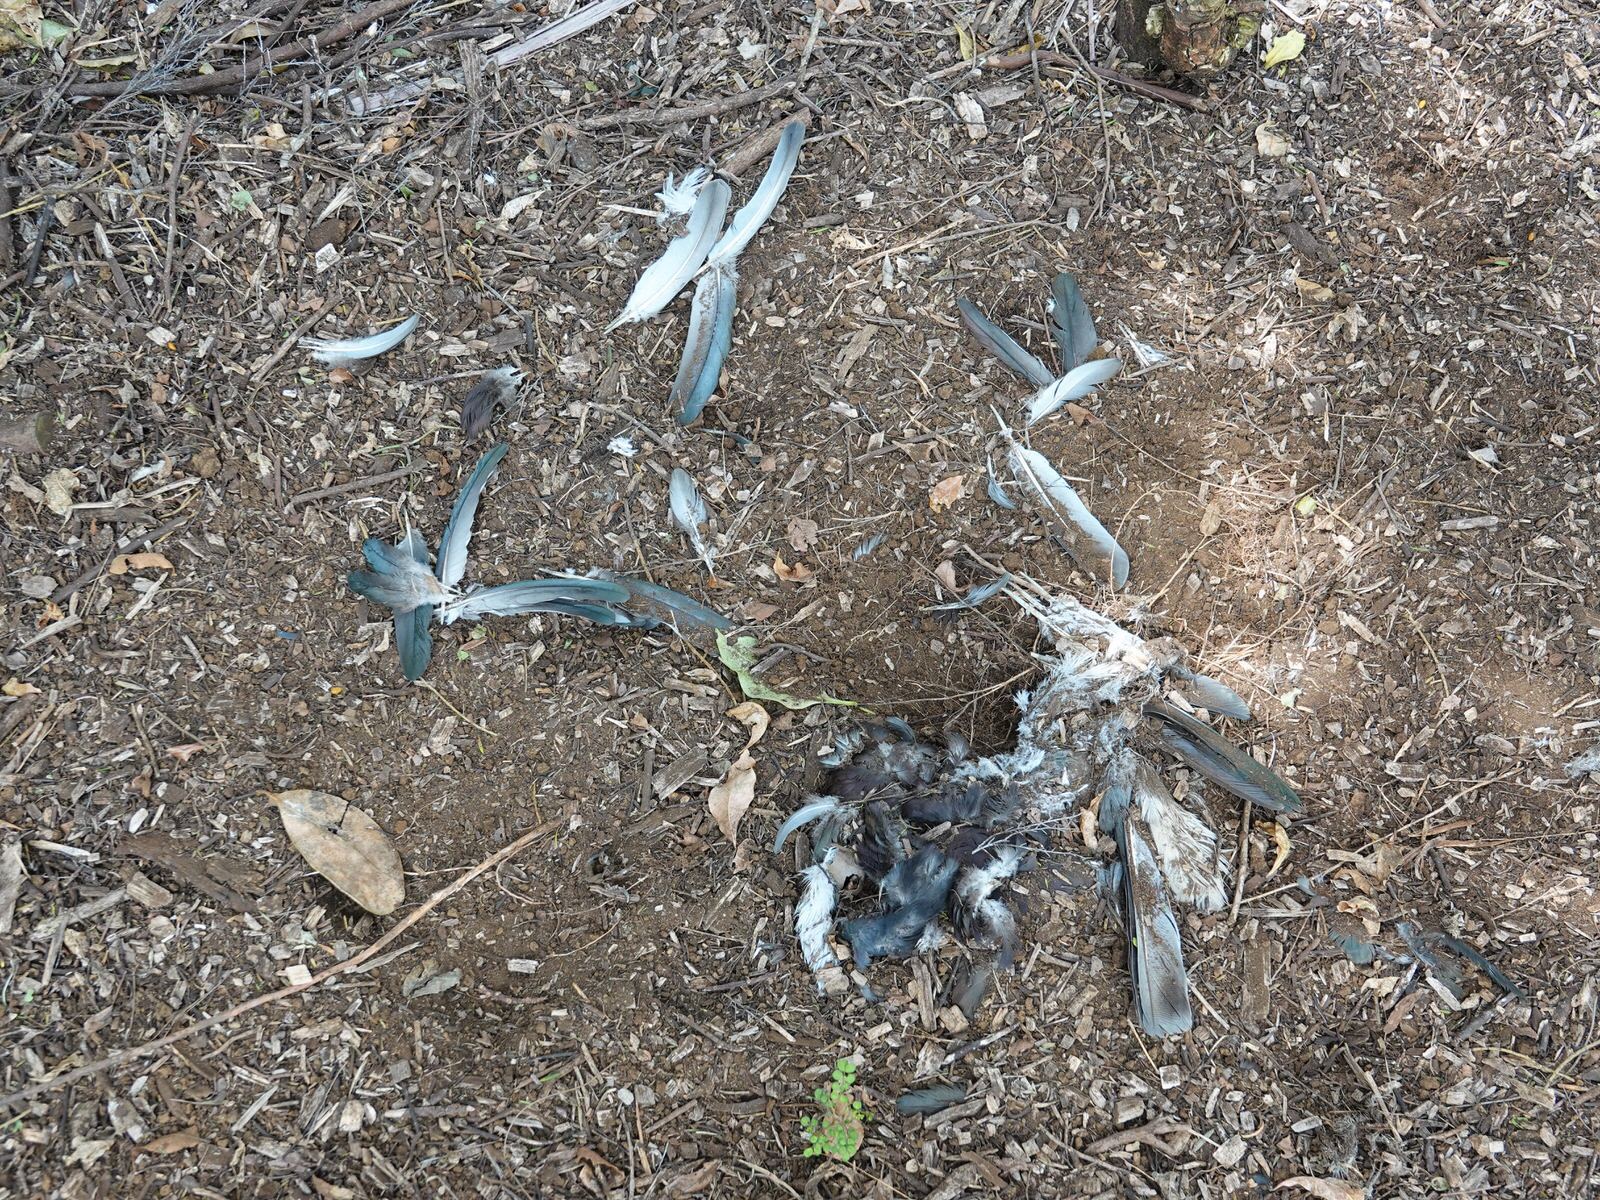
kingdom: Animalia
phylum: Chordata
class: Aves
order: Columbiformes
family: Columbidae
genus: Hemiphaga
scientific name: Hemiphaga novaeseelandiae
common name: New zealand pigeon
